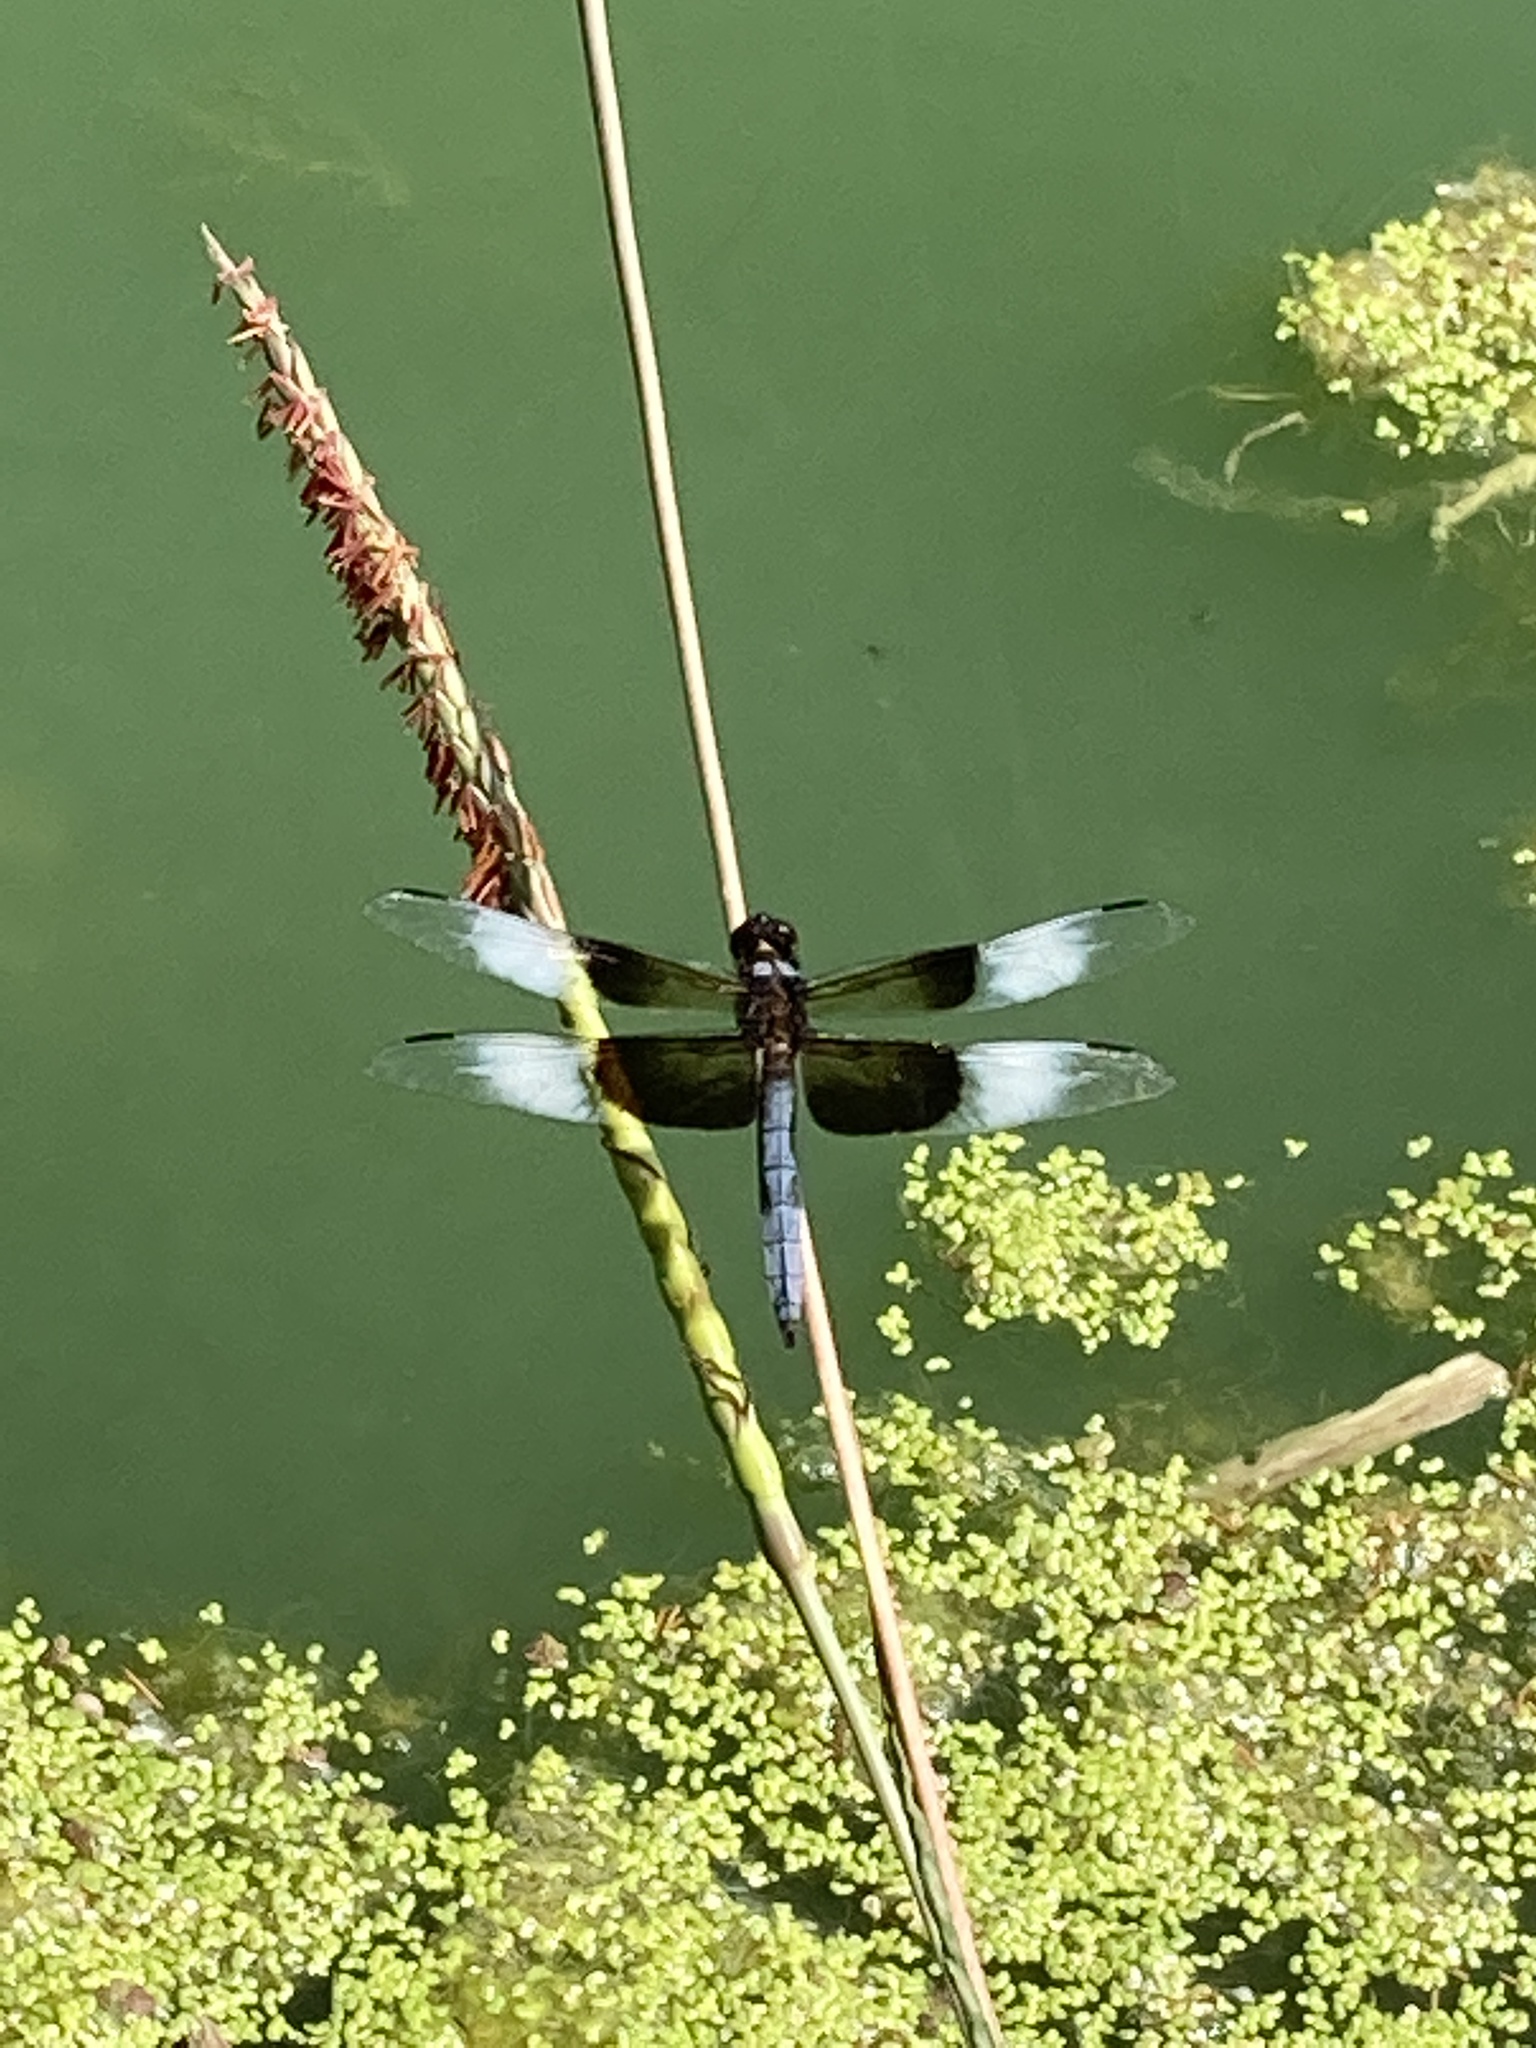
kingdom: Animalia
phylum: Arthropoda
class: Insecta
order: Odonata
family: Libellulidae
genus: Libellula
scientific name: Libellula luctuosa
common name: Widow skimmer
